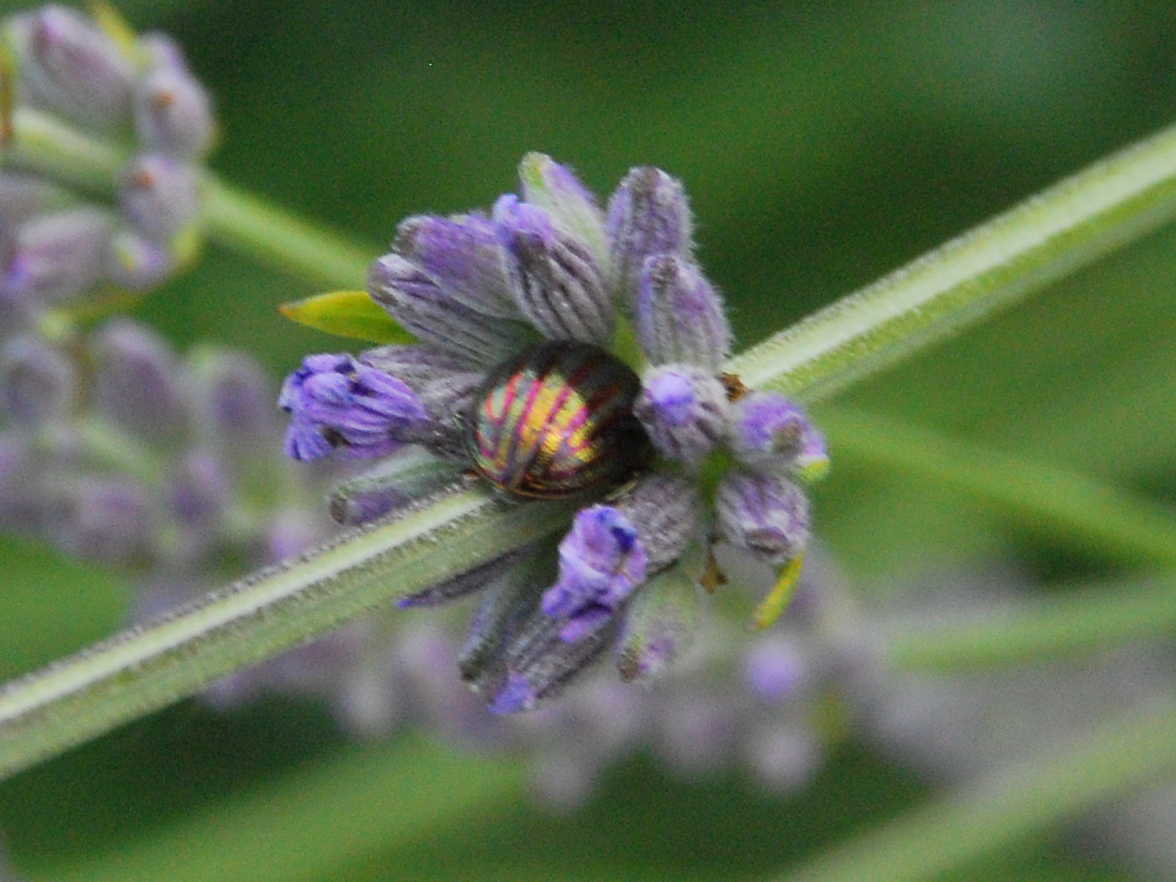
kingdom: Animalia
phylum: Arthropoda
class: Insecta
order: Coleoptera
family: Chrysomelidae
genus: Chrysolina
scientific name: Chrysolina americana
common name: Rosemary beetle
